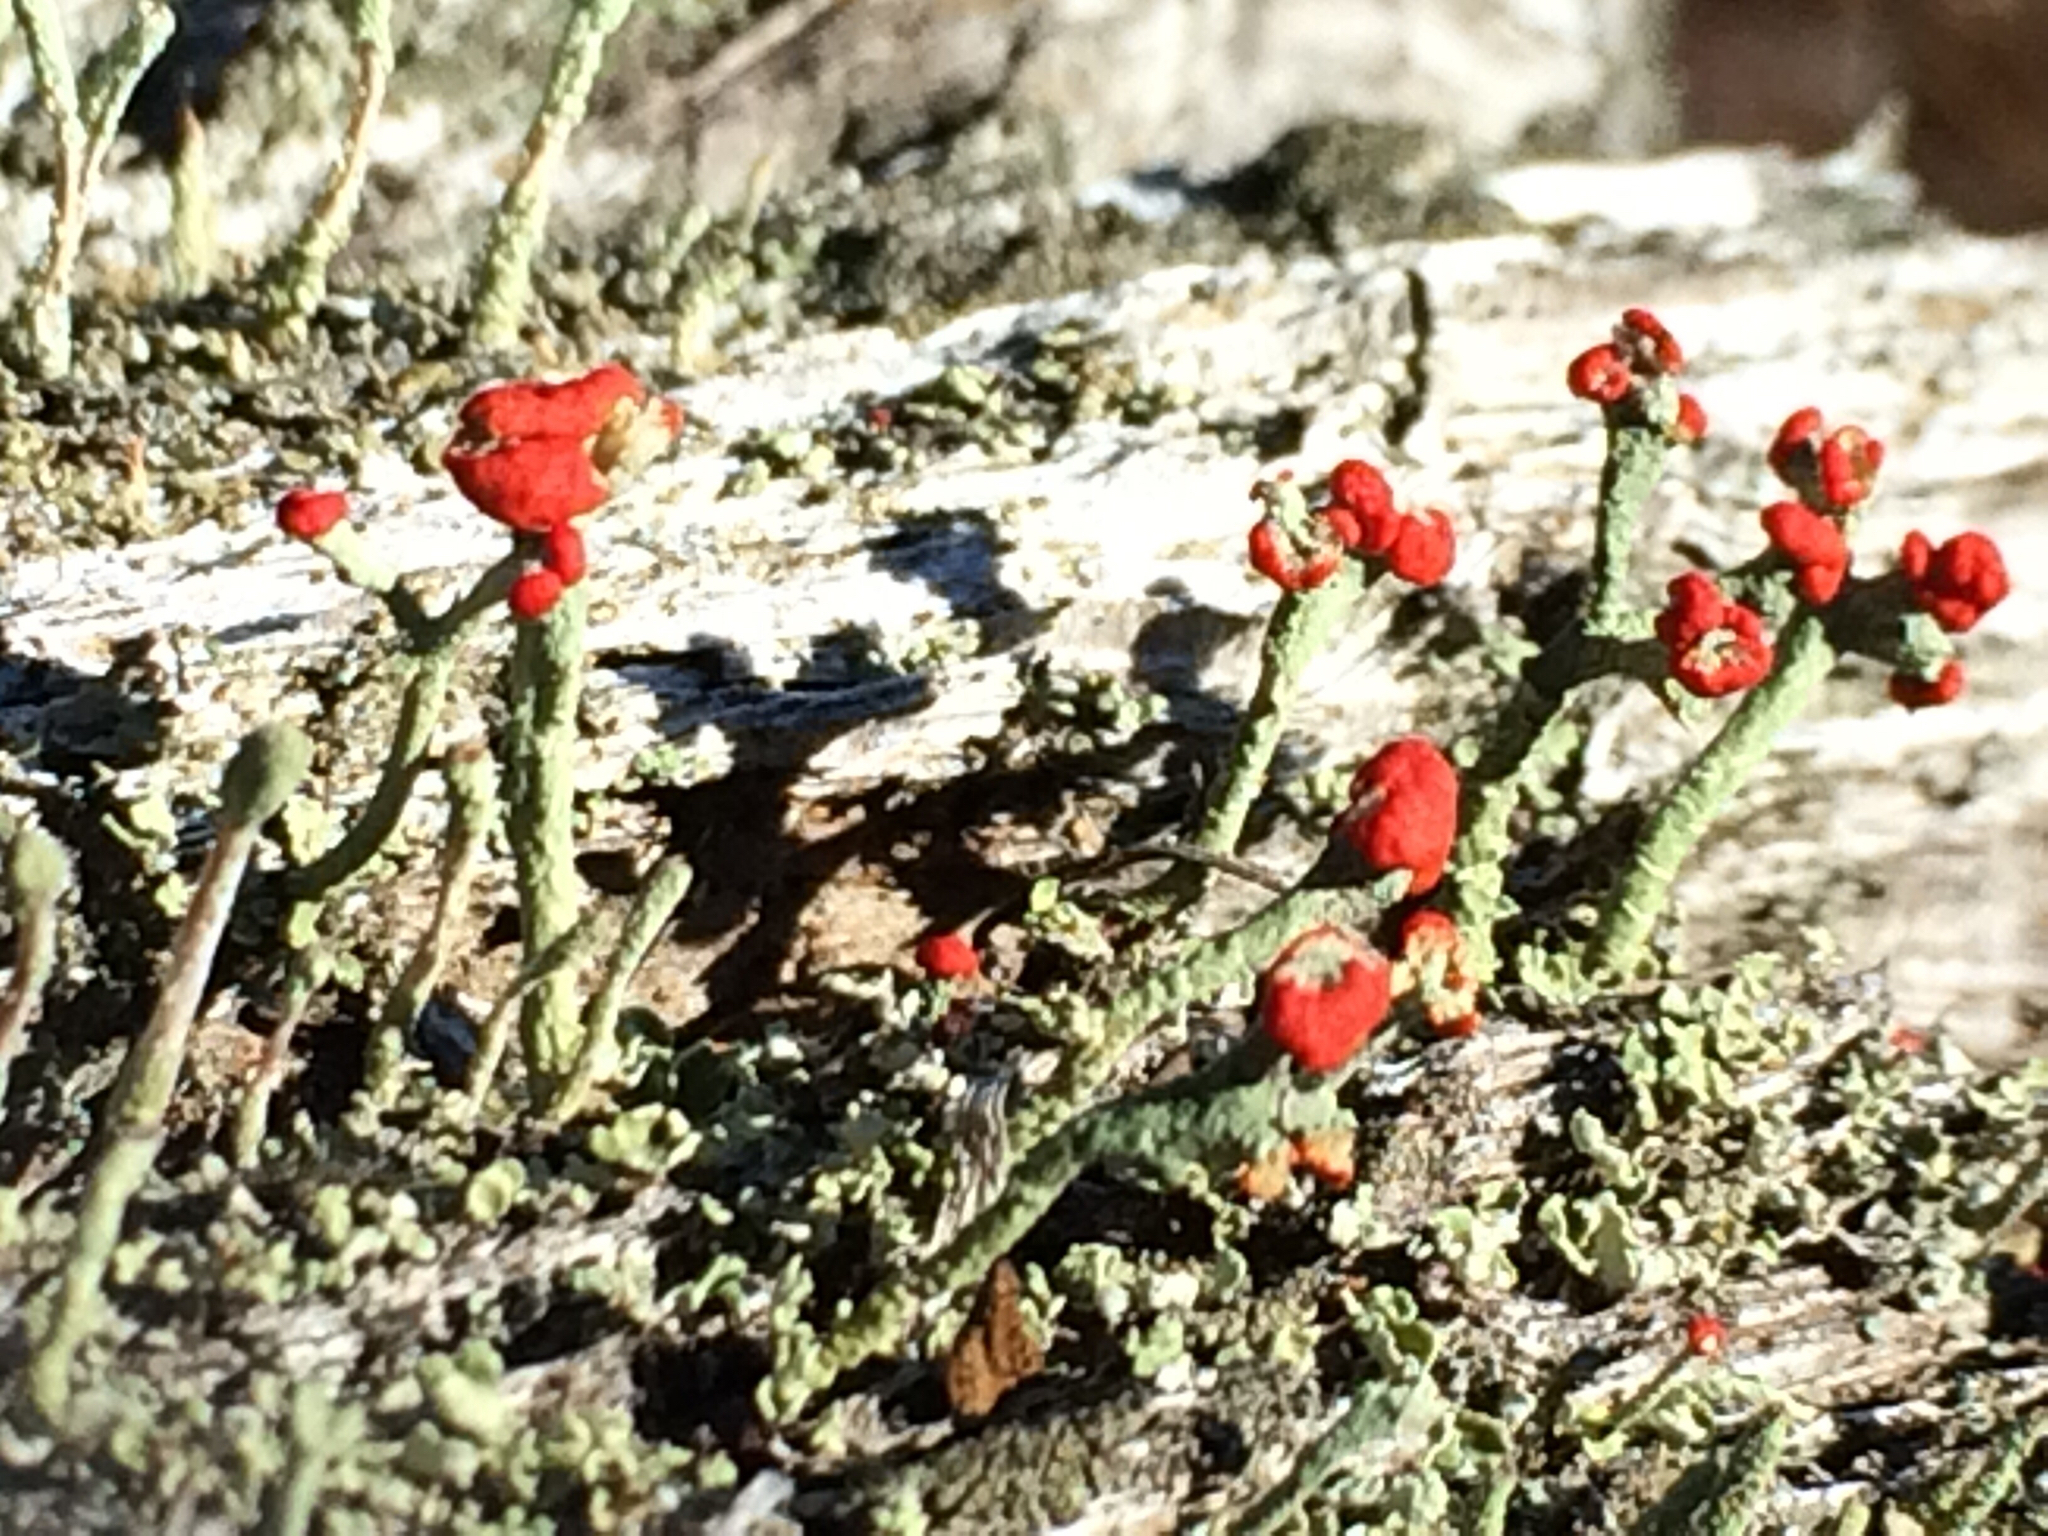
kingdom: Fungi
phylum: Ascomycota
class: Lecanoromycetes
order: Lecanorales
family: Cladoniaceae
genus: Cladonia
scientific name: Cladonia cristatella
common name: British soldier lichen
